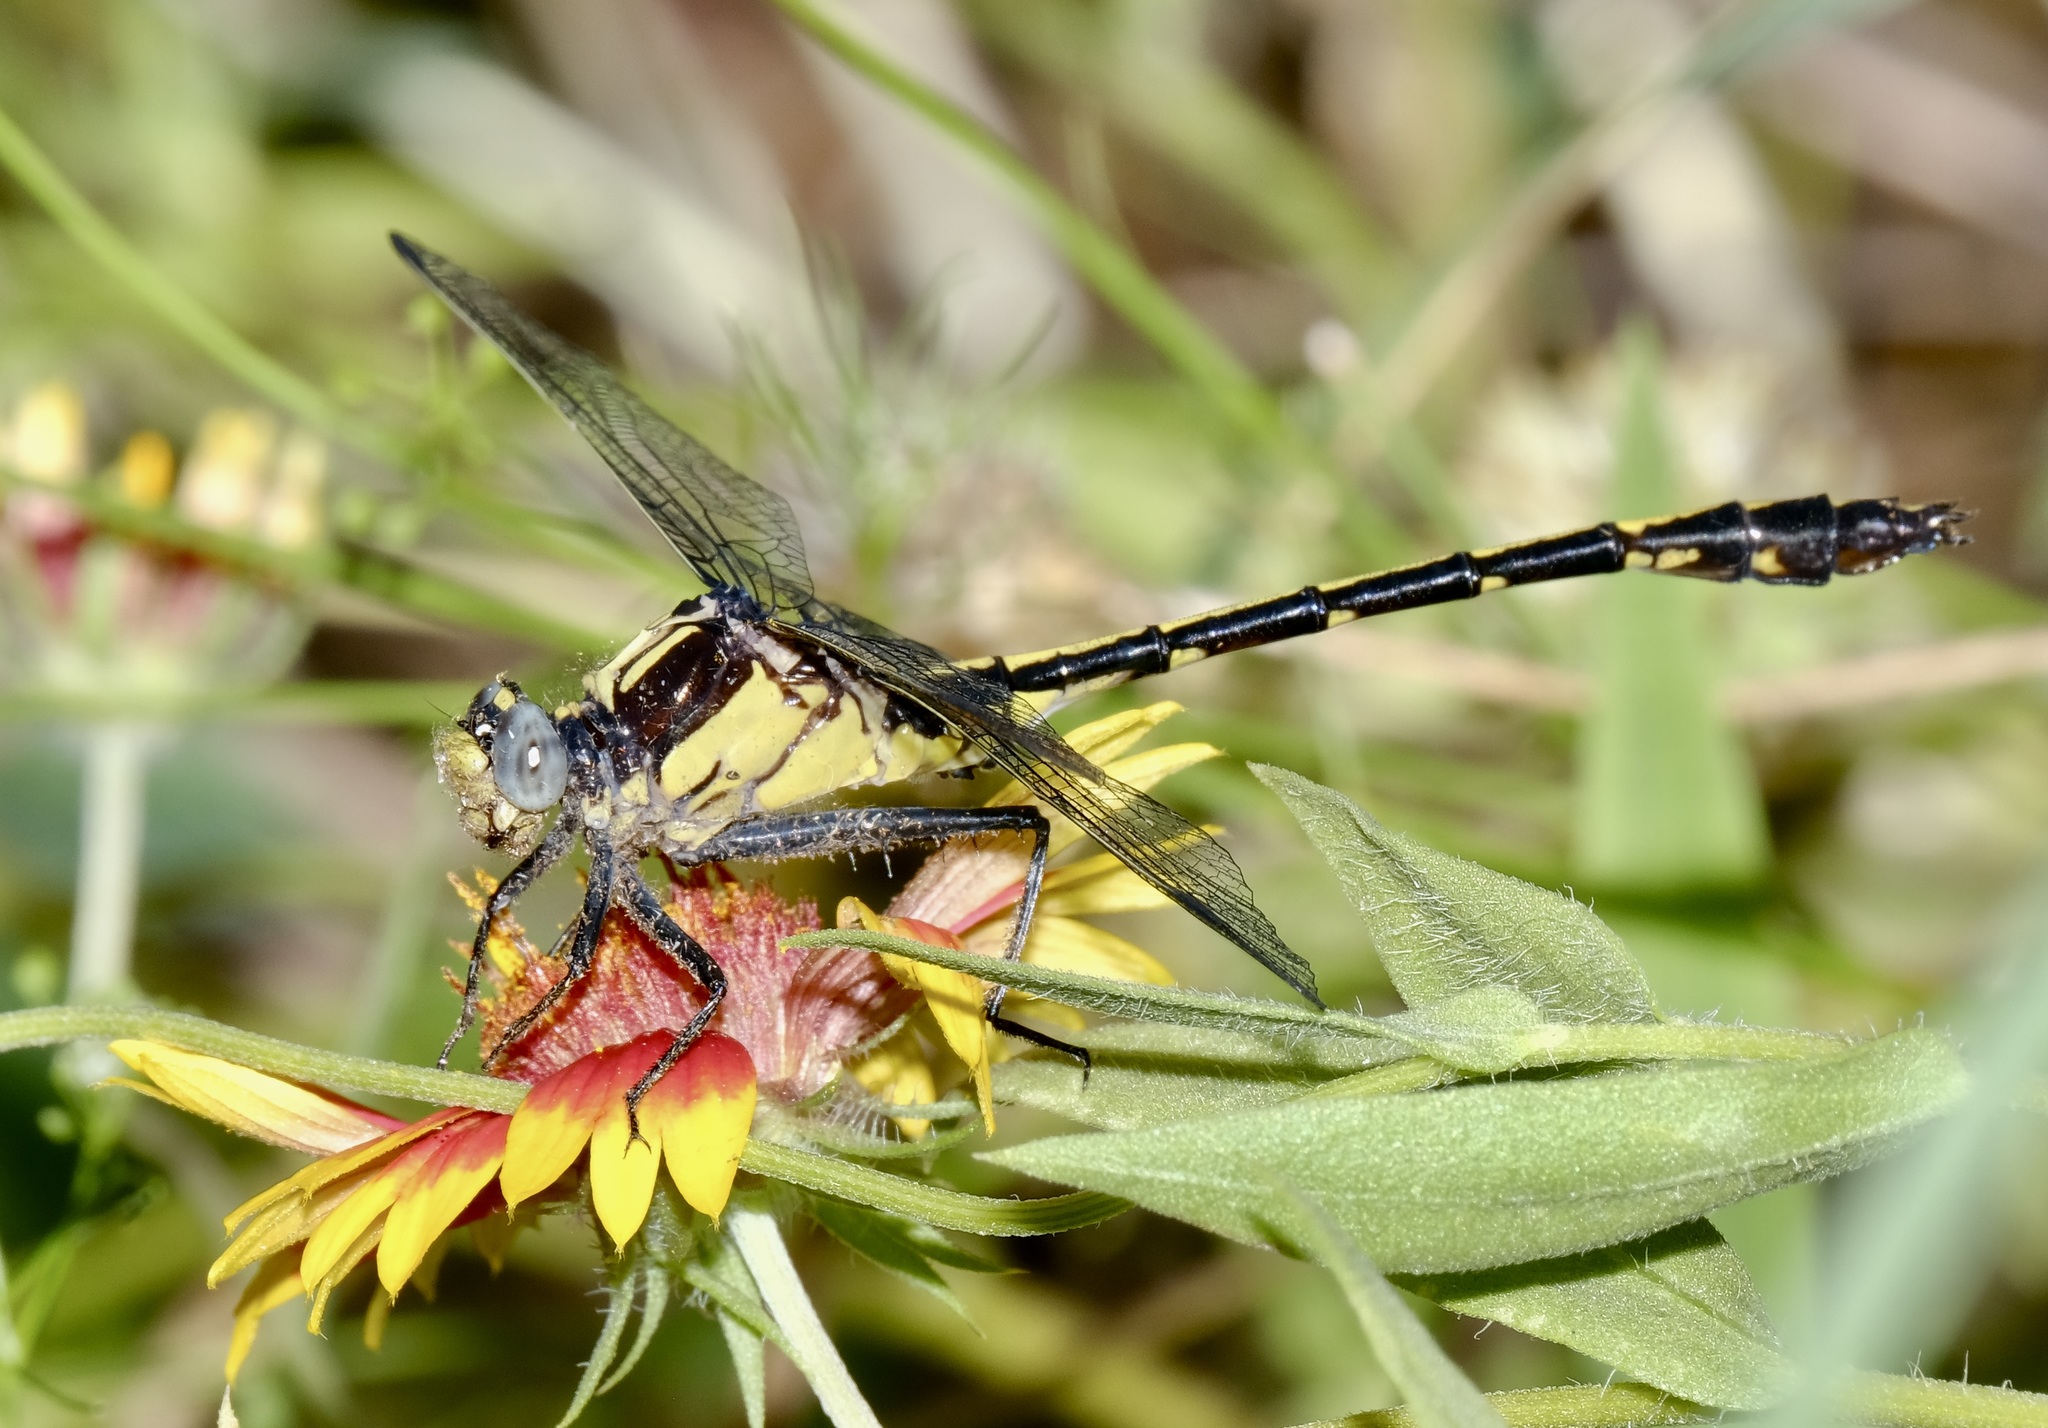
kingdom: Animalia
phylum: Arthropoda
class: Insecta
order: Odonata
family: Gomphidae
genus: Dromogomphus
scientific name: Dromogomphus spinosus
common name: Black-shouldered spinyleg
